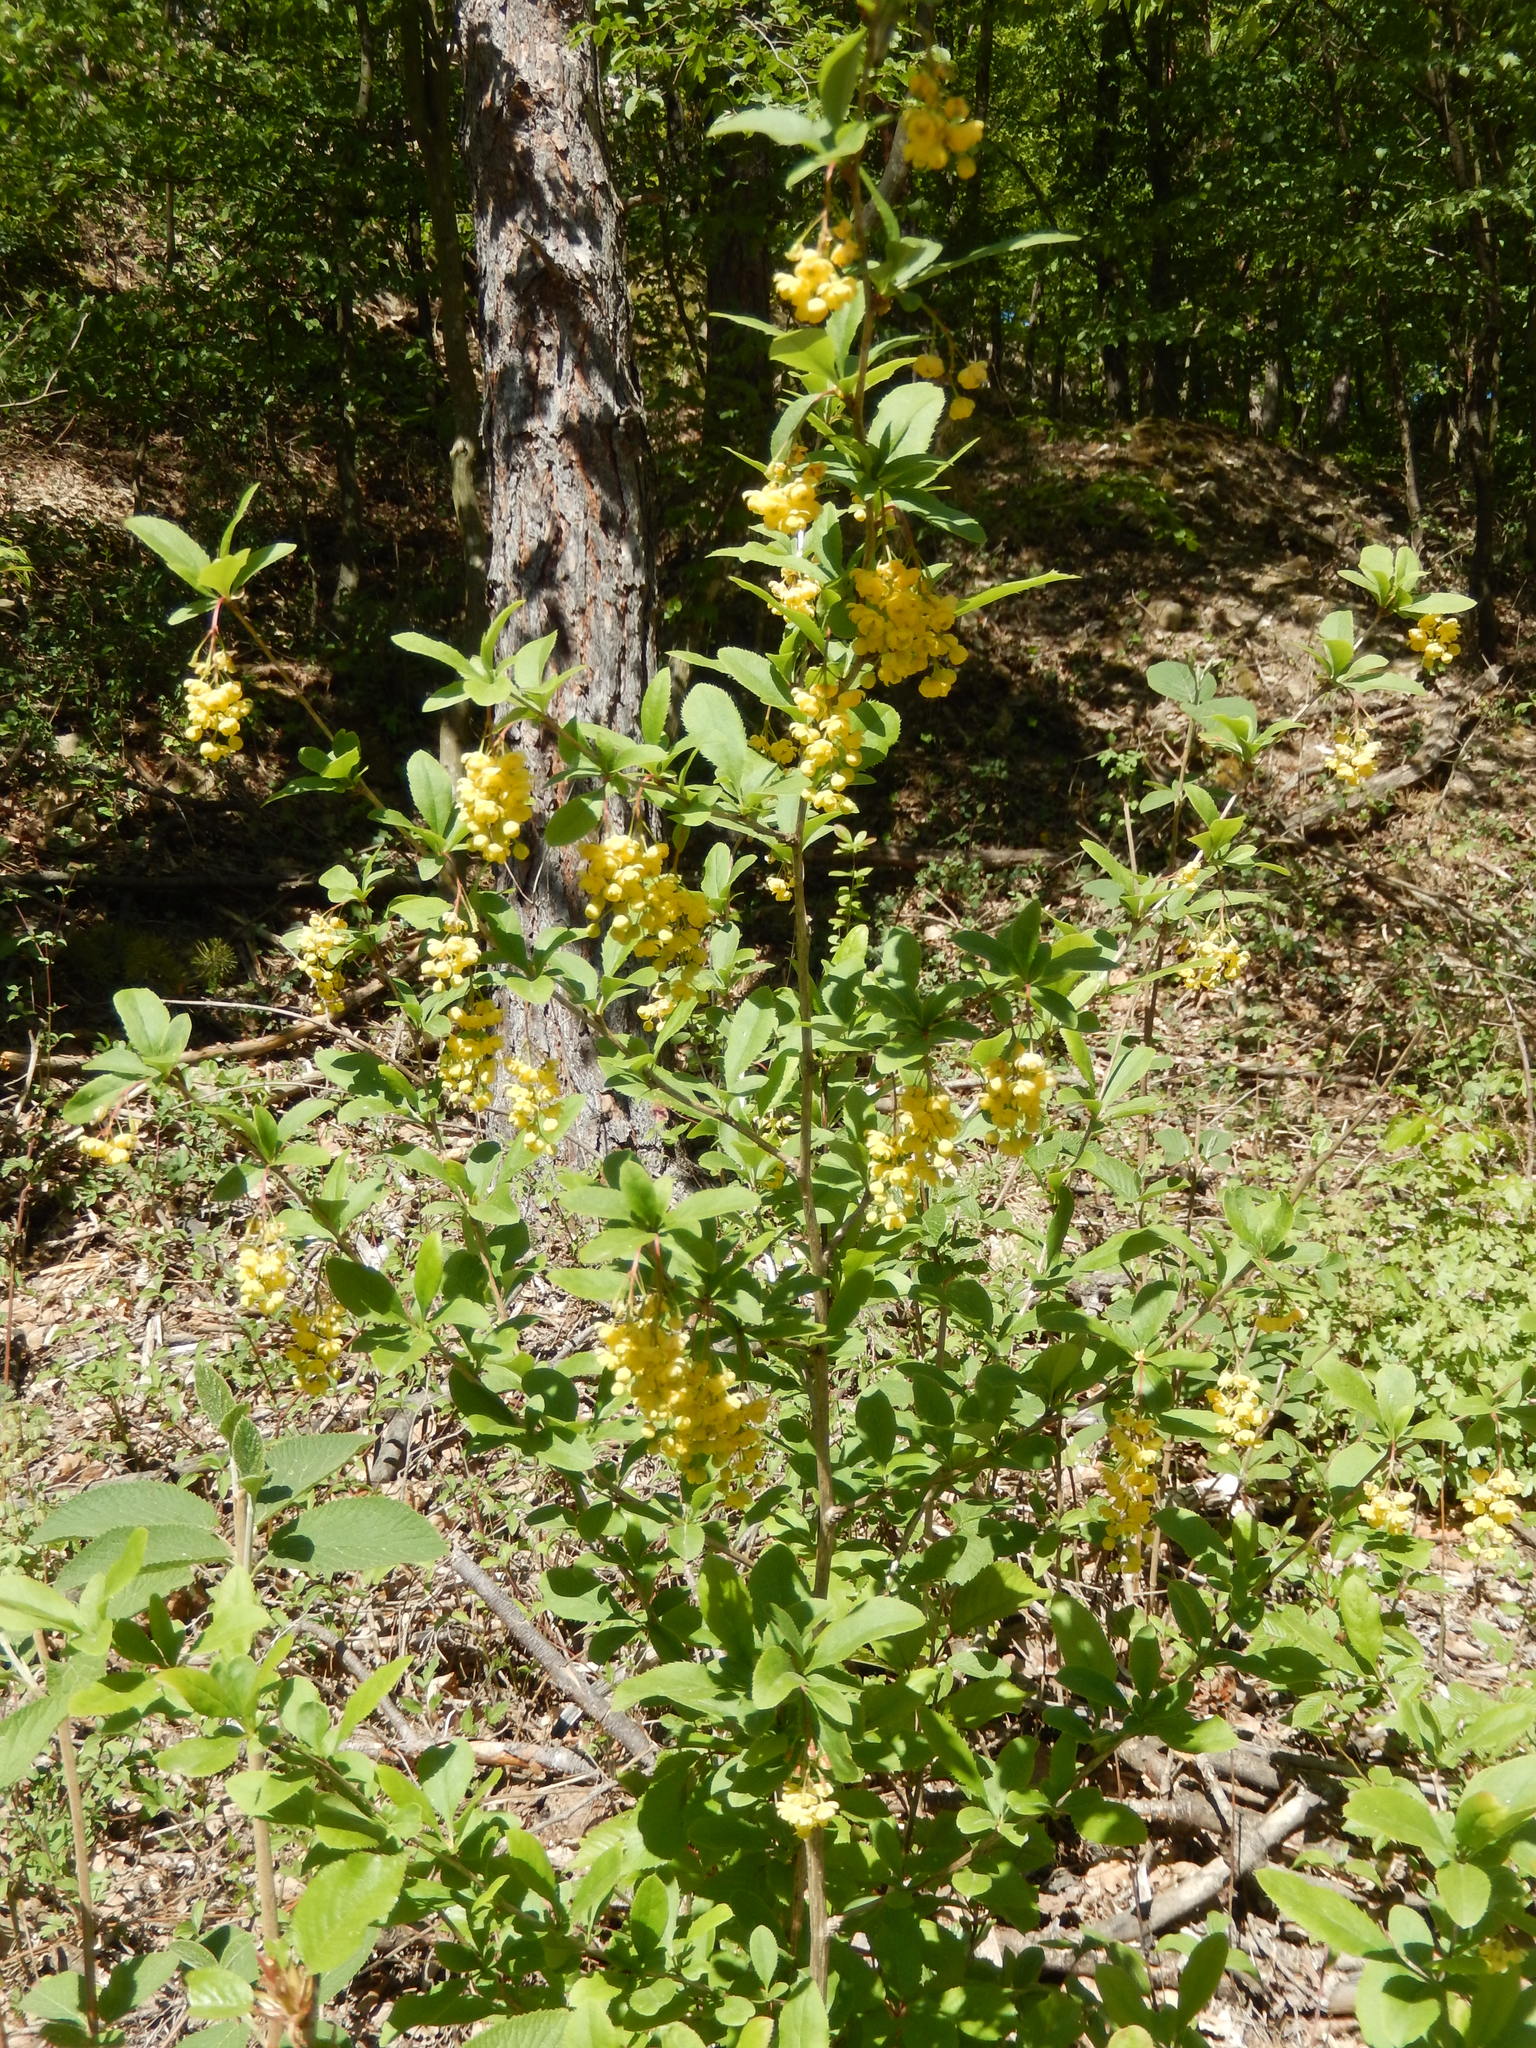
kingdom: Plantae
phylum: Tracheophyta
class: Magnoliopsida
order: Ranunculales
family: Berberidaceae
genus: Berberis
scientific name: Berberis vulgaris
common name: Barberry
